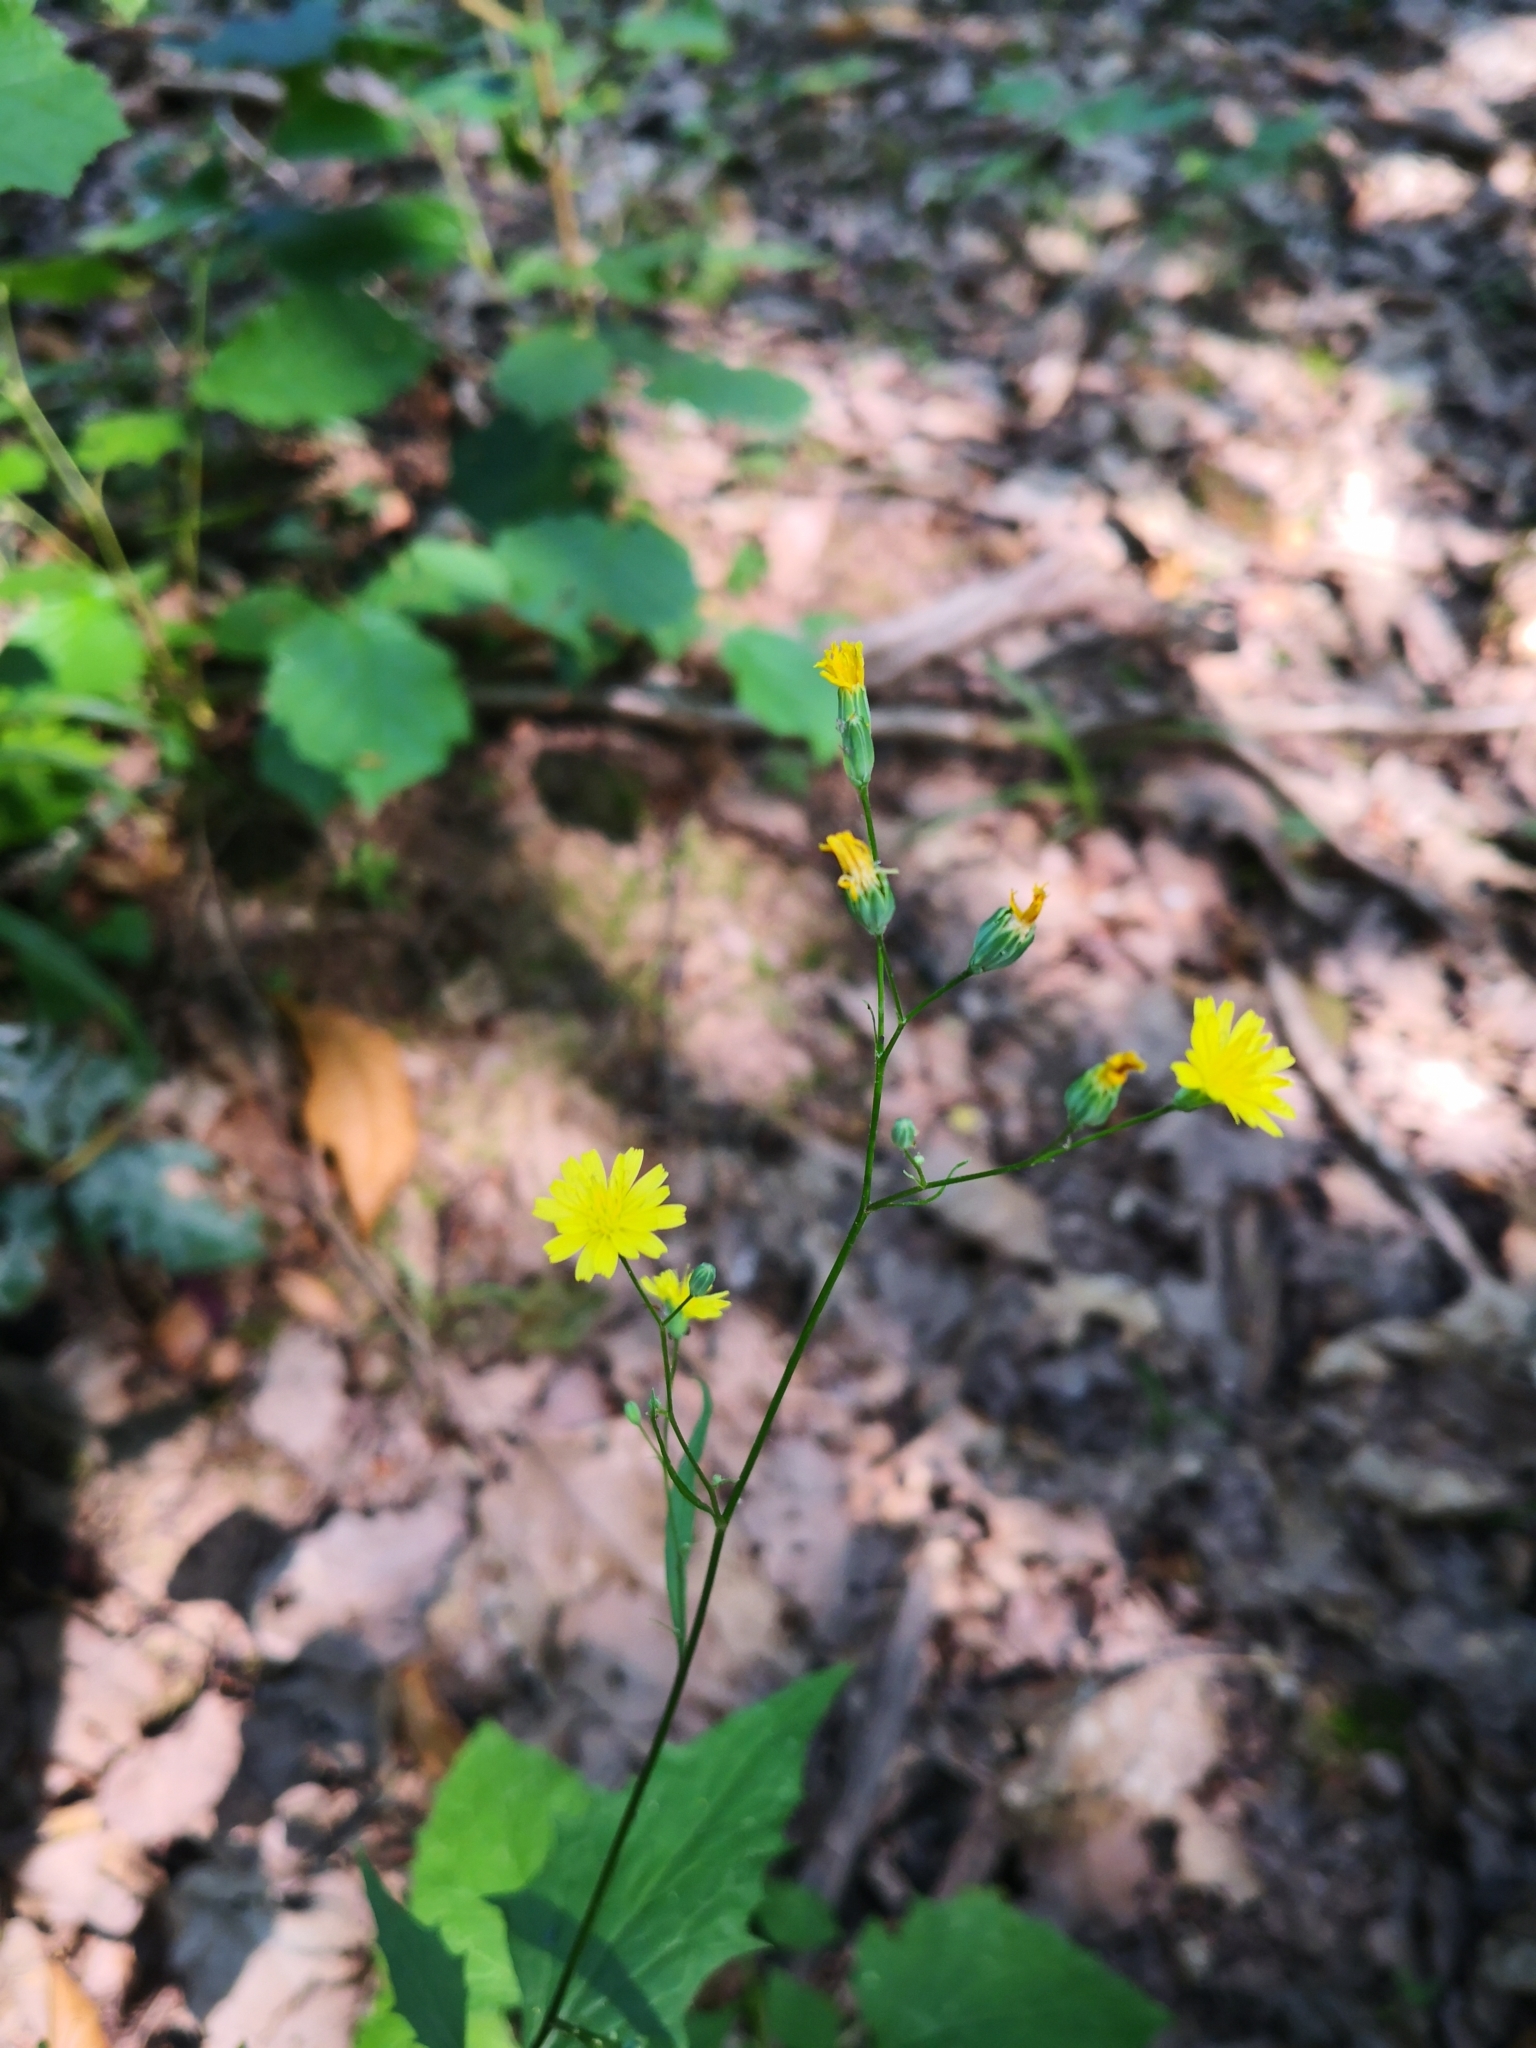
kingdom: Plantae
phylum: Tracheophyta
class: Magnoliopsida
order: Asterales
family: Asteraceae
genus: Lapsana
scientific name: Lapsana communis
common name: Nipplewort
